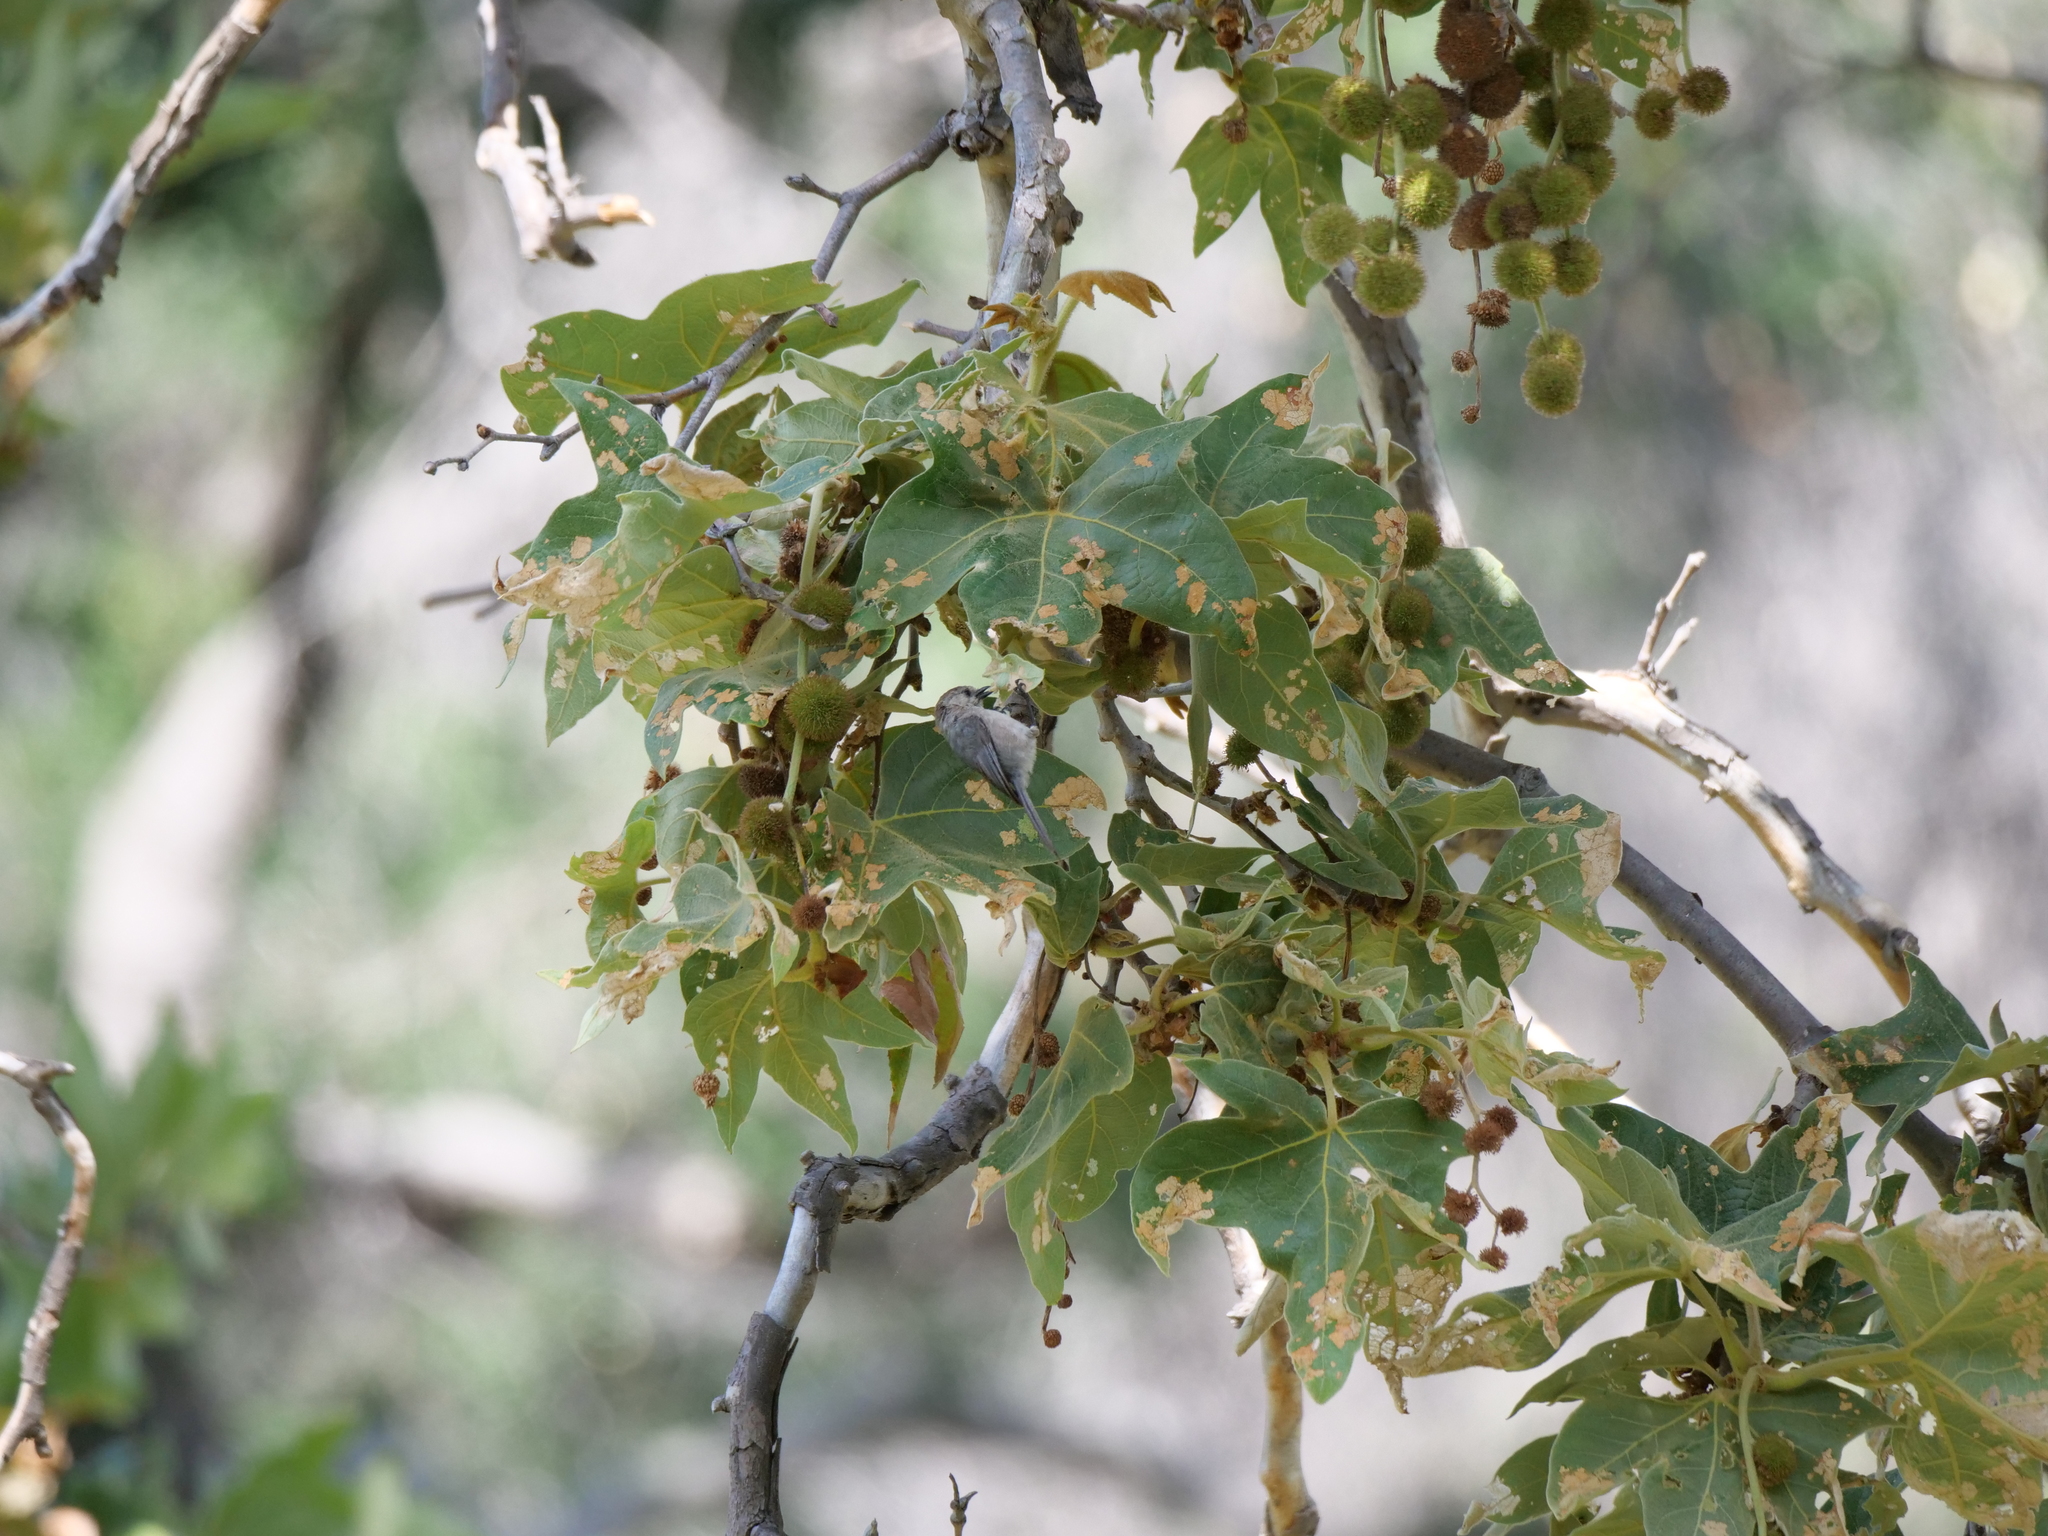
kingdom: Animalia
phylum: Chordata
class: Aves
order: Passeriformes
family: Aegithalidae
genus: Psaltriparus
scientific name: Psaltriparus minimus
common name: American bushtit
